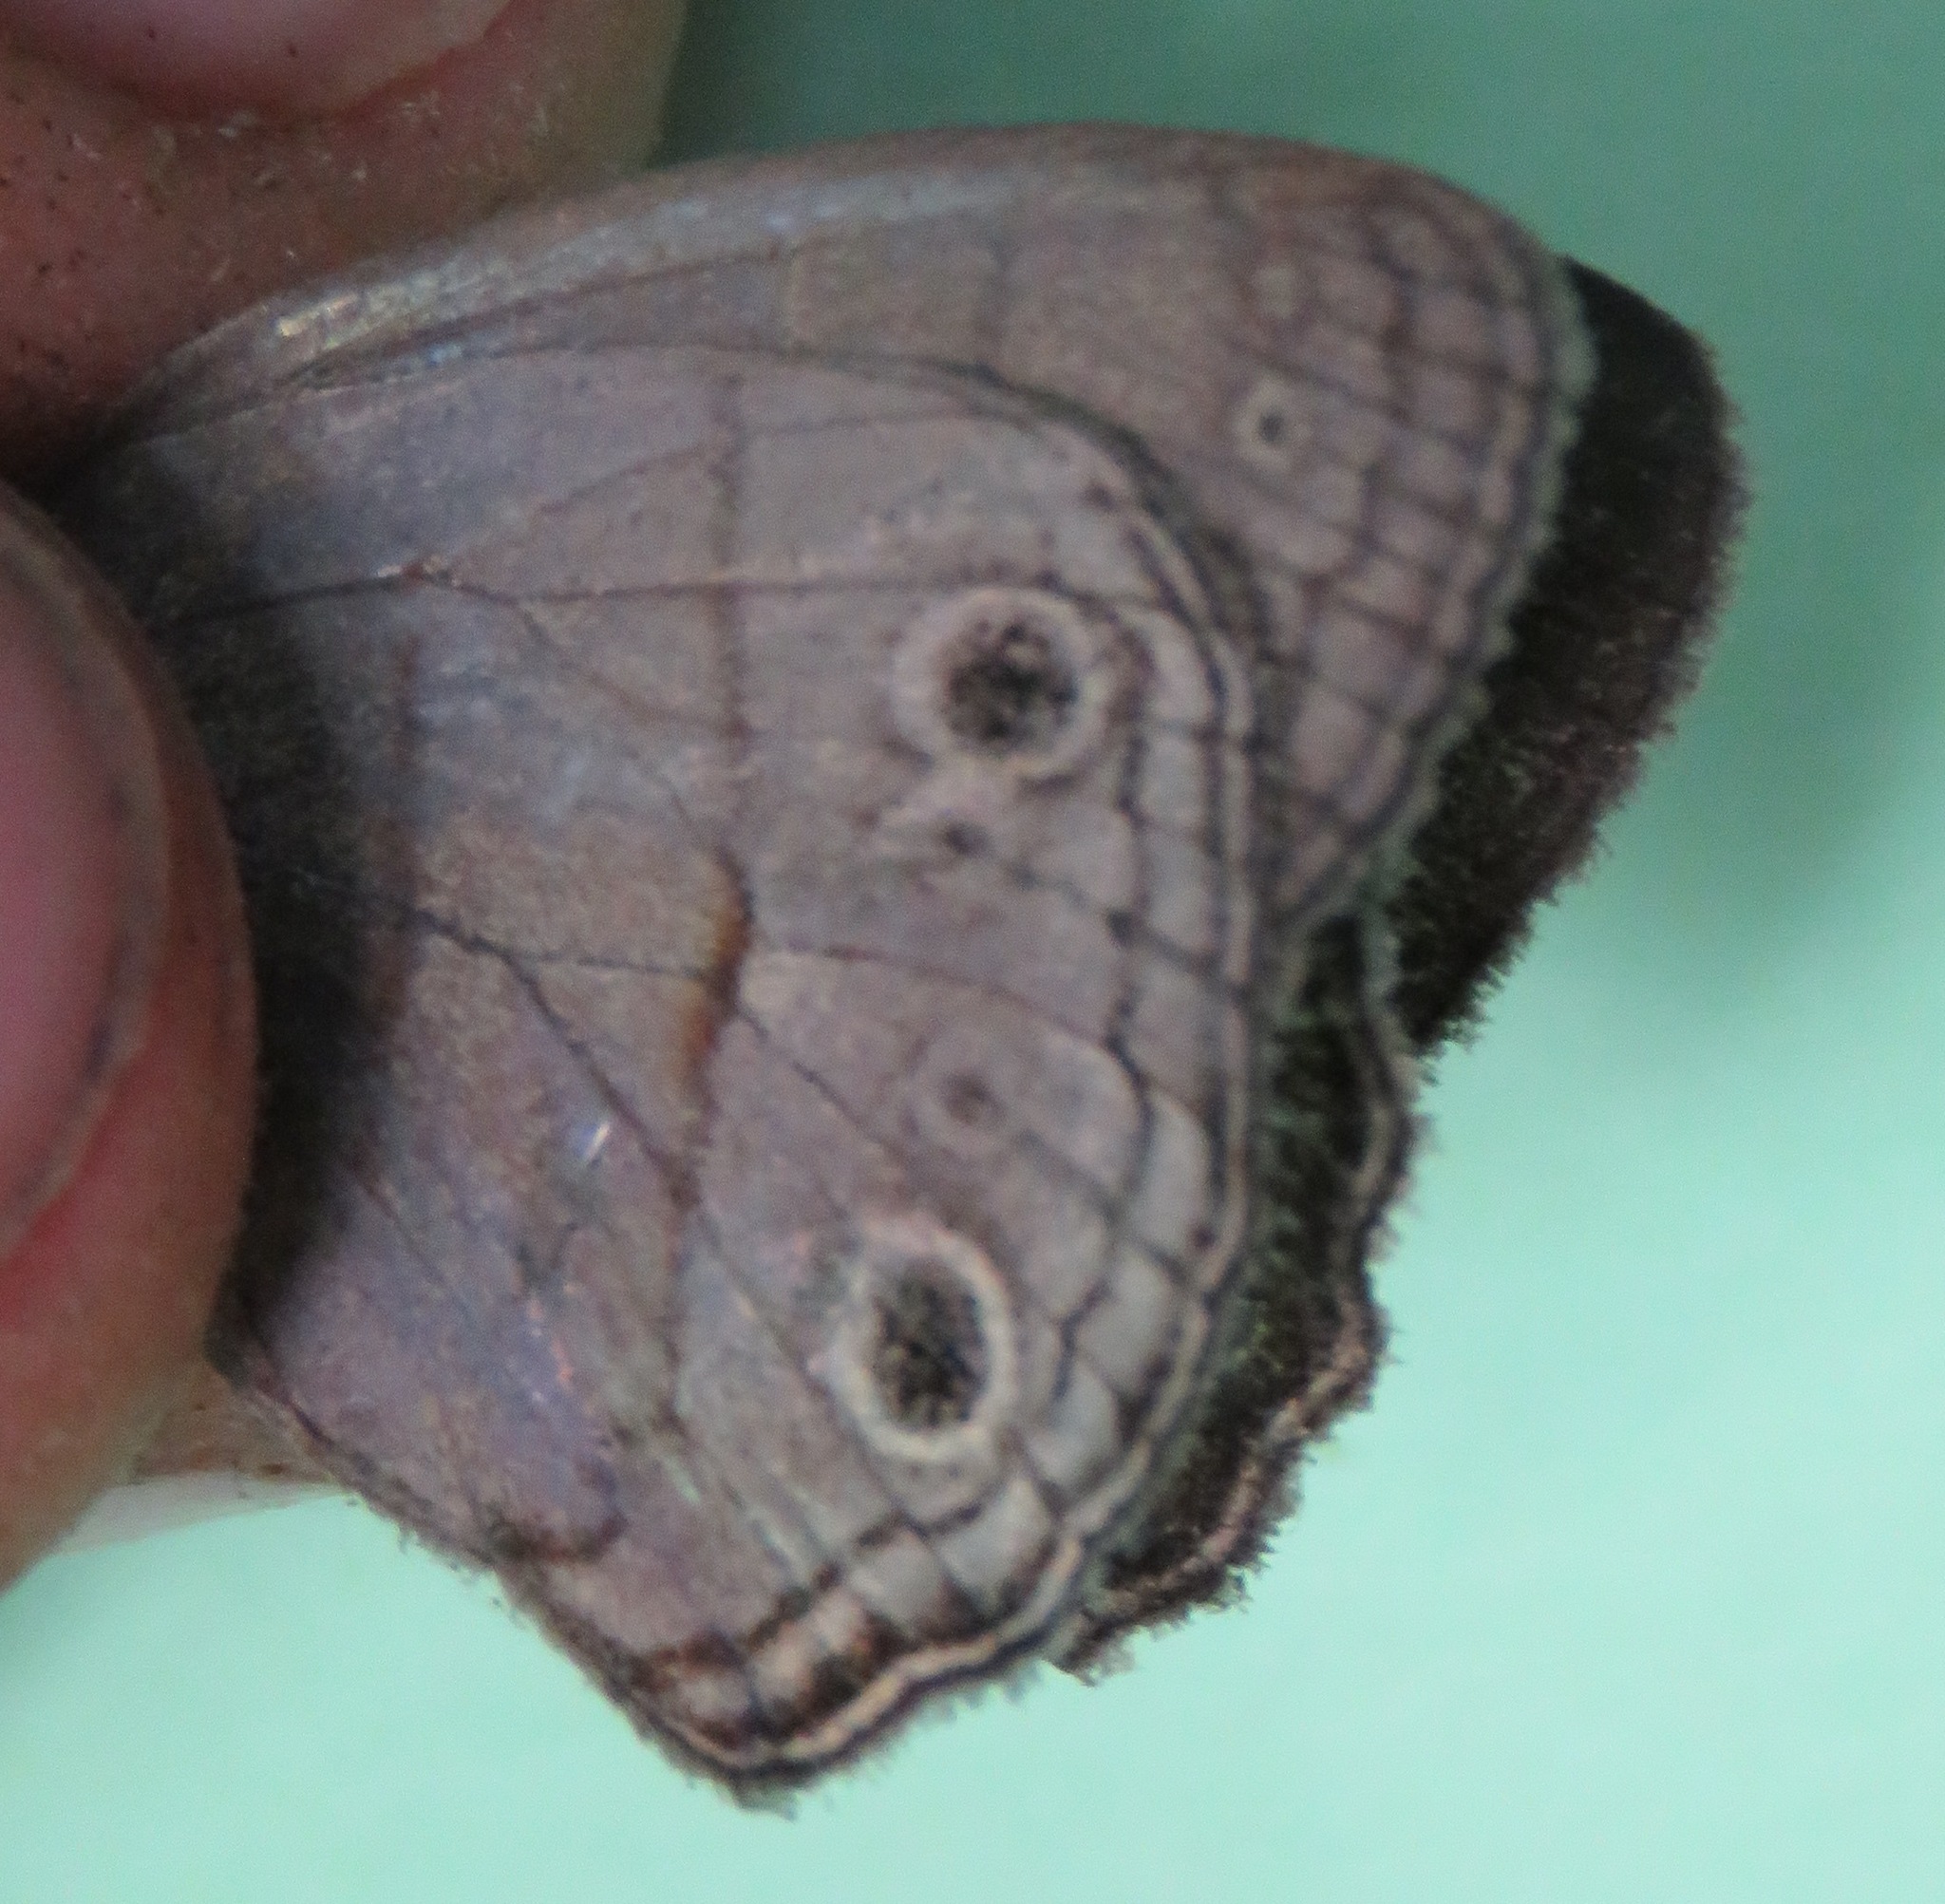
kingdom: Animalia
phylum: Arthropoda
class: Insecta
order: Lepidoptera
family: Nymphalidae
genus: Vareuptychia
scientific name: Vareuptychia similis
